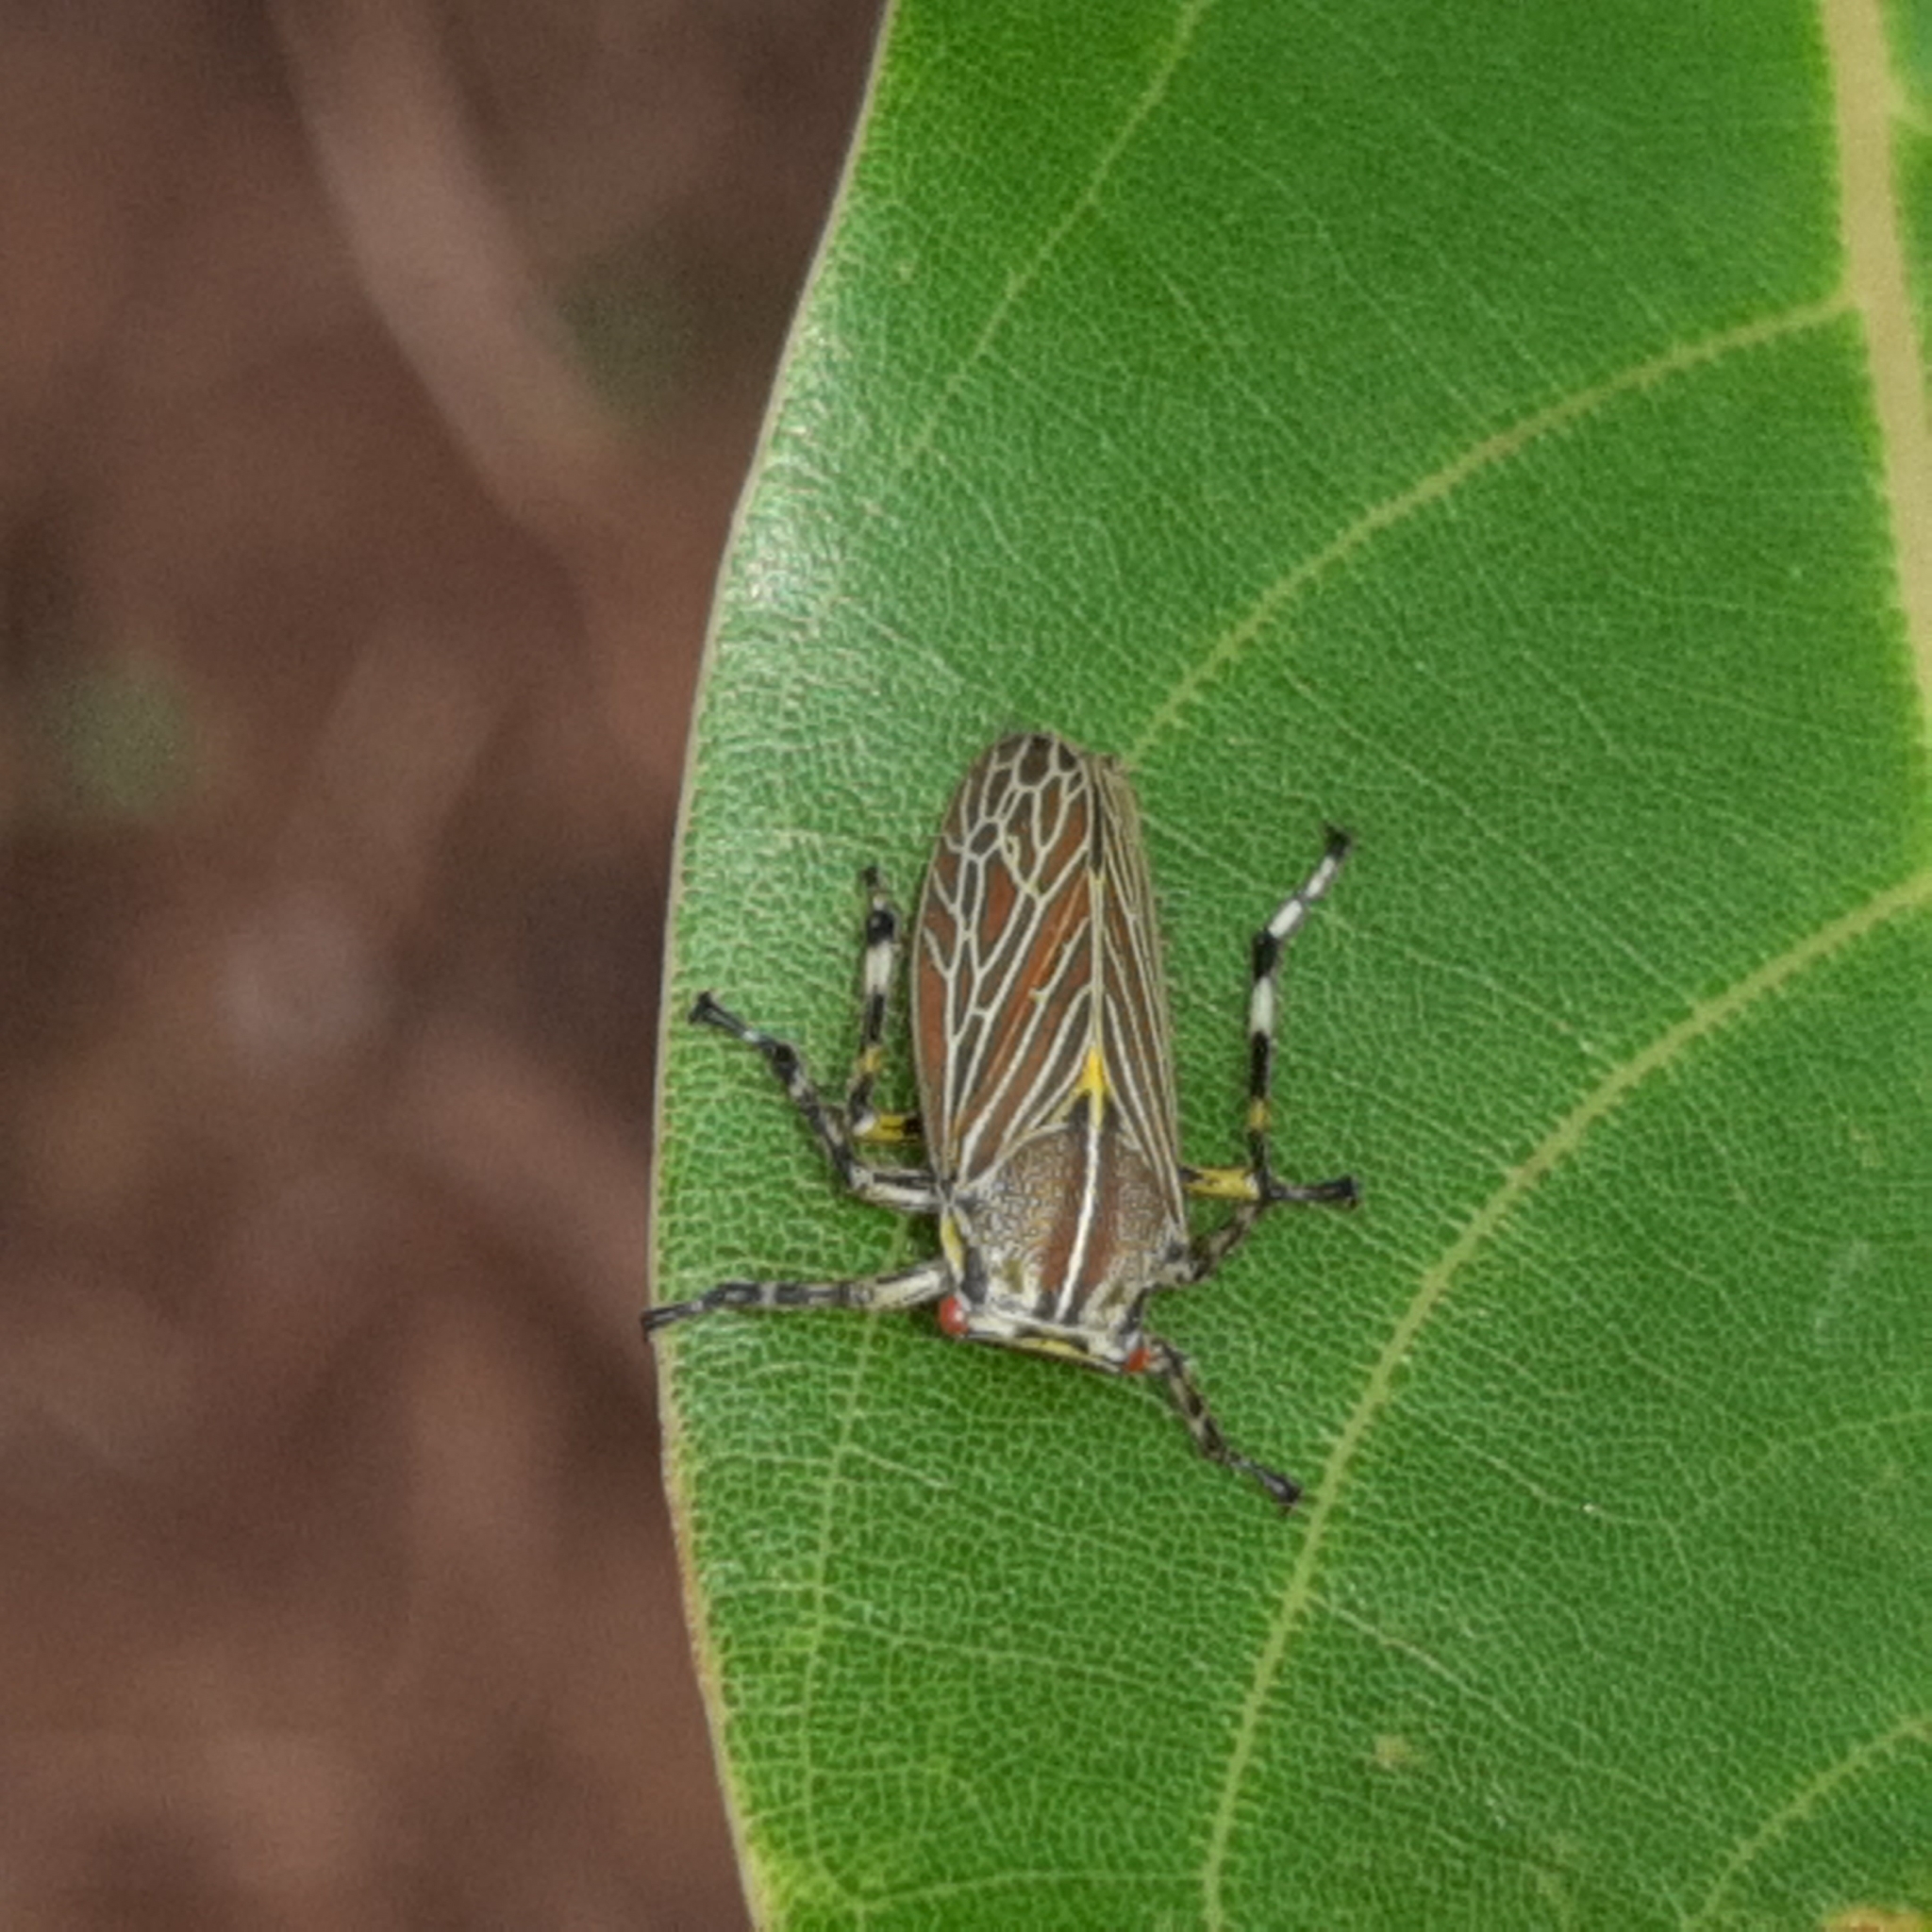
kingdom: Animalia
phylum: Arthropoda
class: Insecta
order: Hemiptera
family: Aetalionidae
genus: Aetalion
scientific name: Aetalion reticulatum
